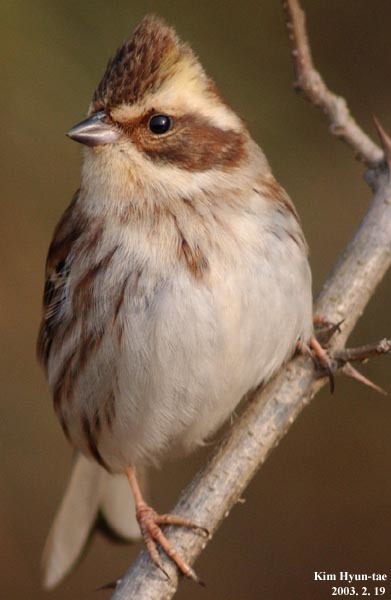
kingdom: Animalia
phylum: Chordata
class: Aves
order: Passeriformes
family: Emberizidae
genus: Emberiza
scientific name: Emberiza elegans
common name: Yellow-throated bunting
